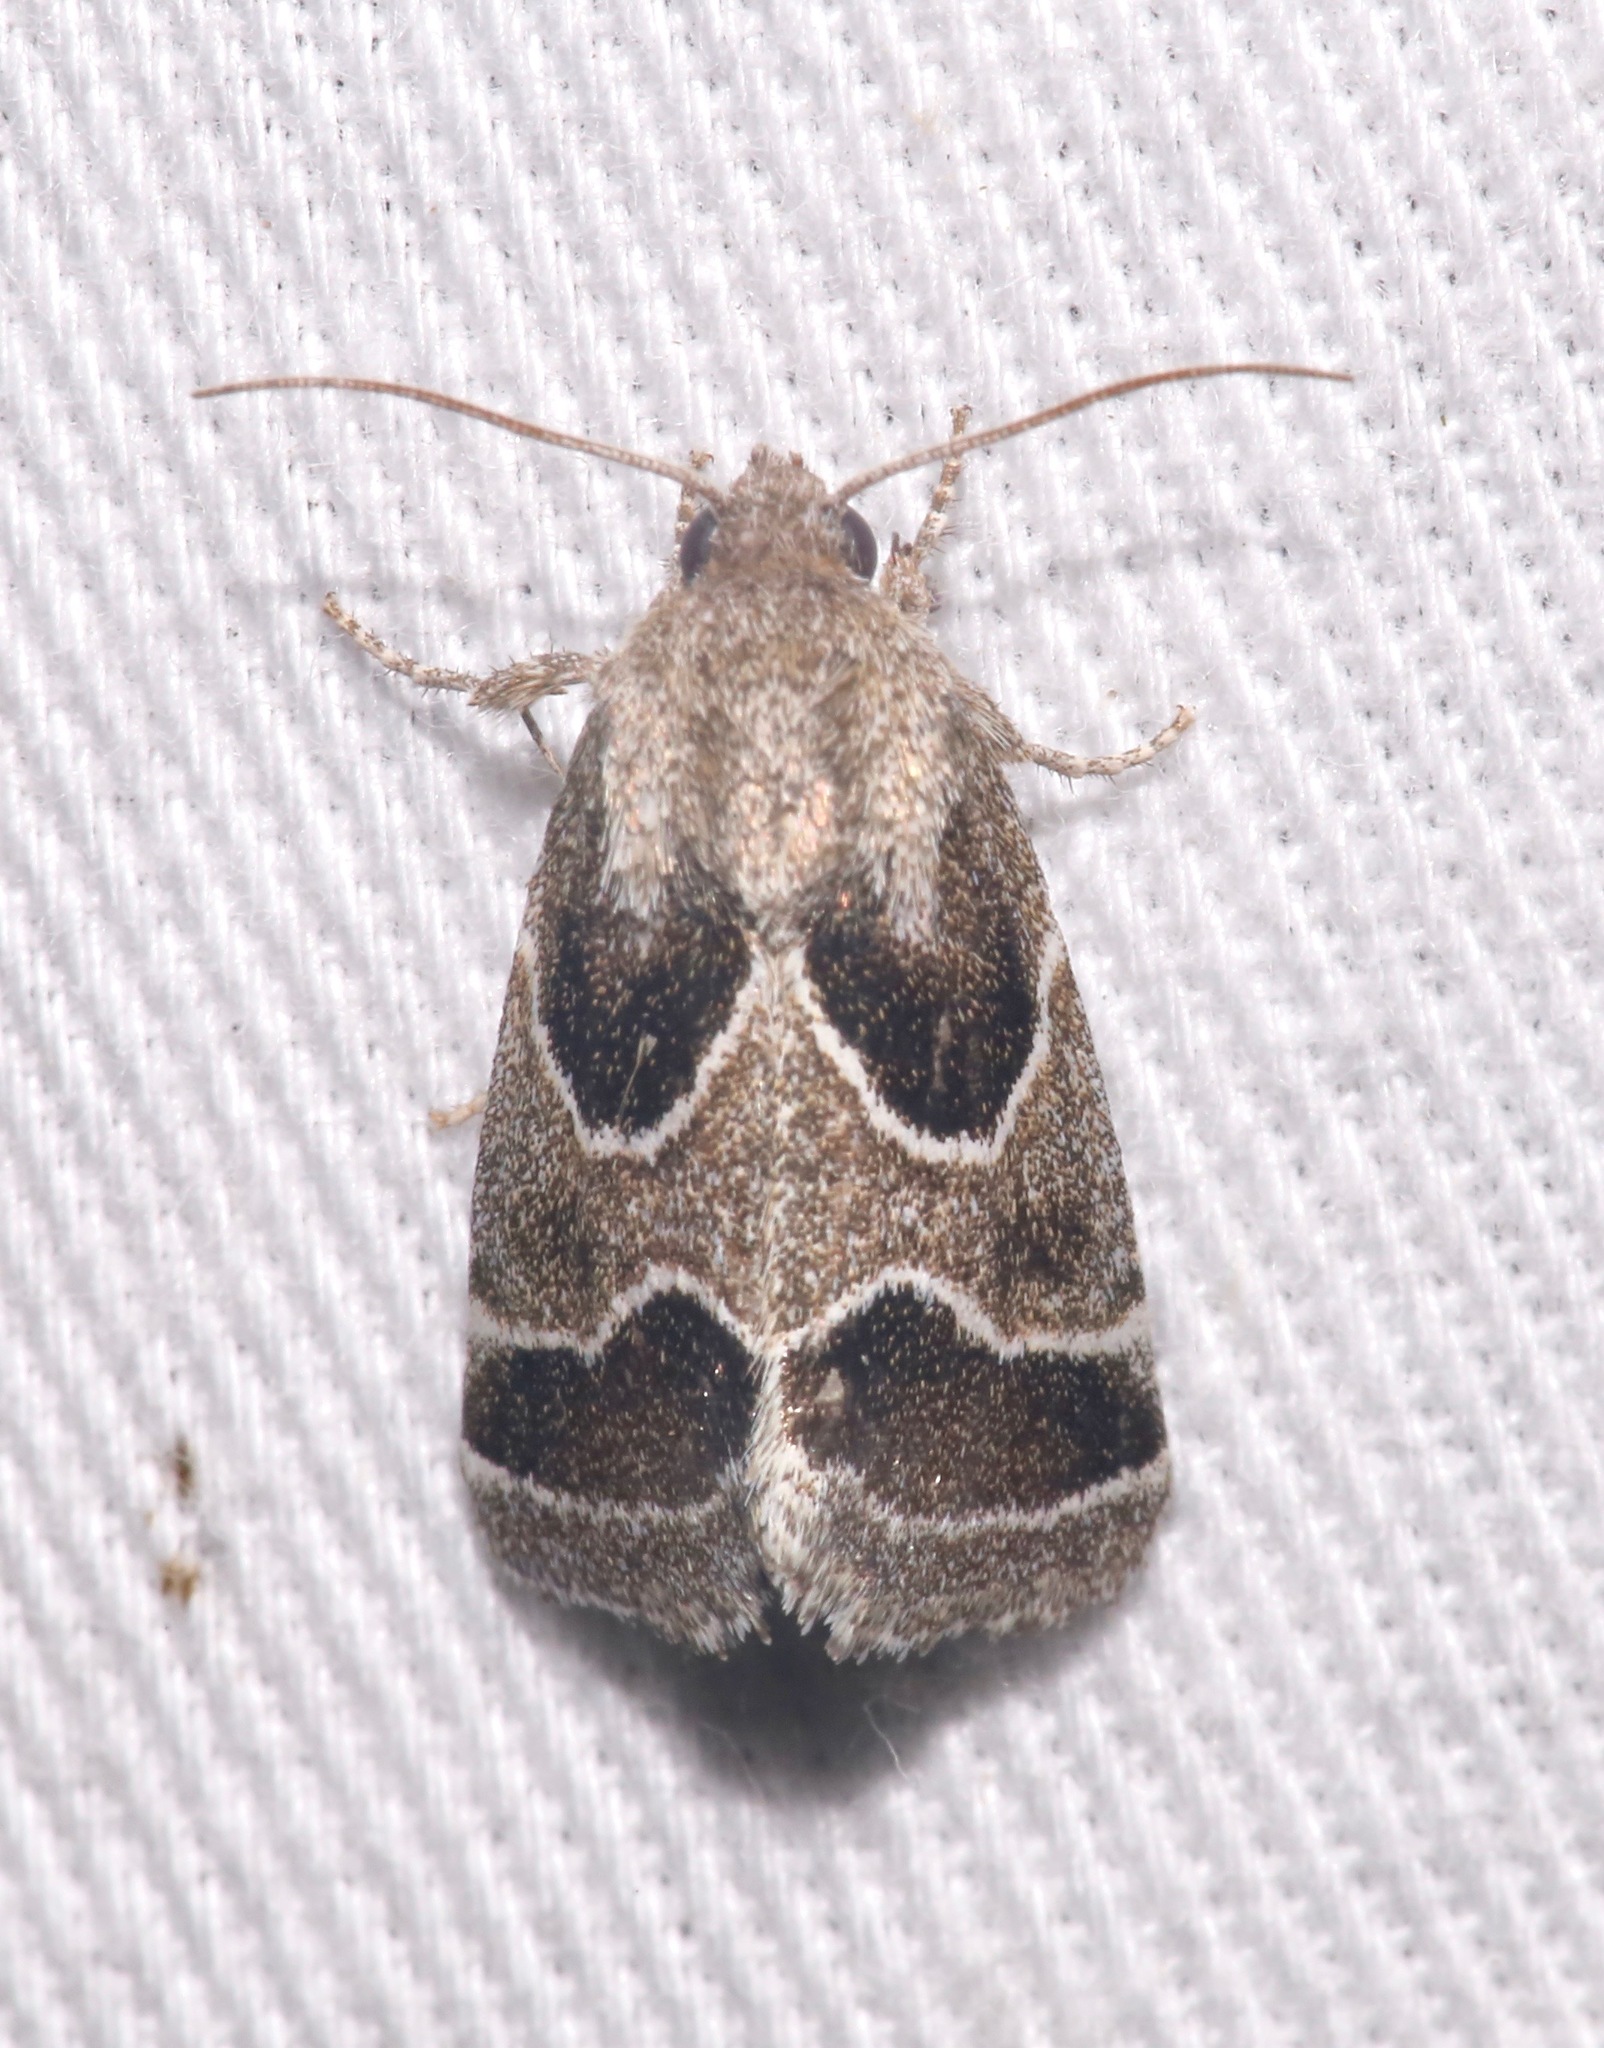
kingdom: Animalia
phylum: Arthropoda
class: Insecta
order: Lepidoptera
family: Noctuidae
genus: Schinia
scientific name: Schinia rivulosa
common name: Scarce meal-moth
